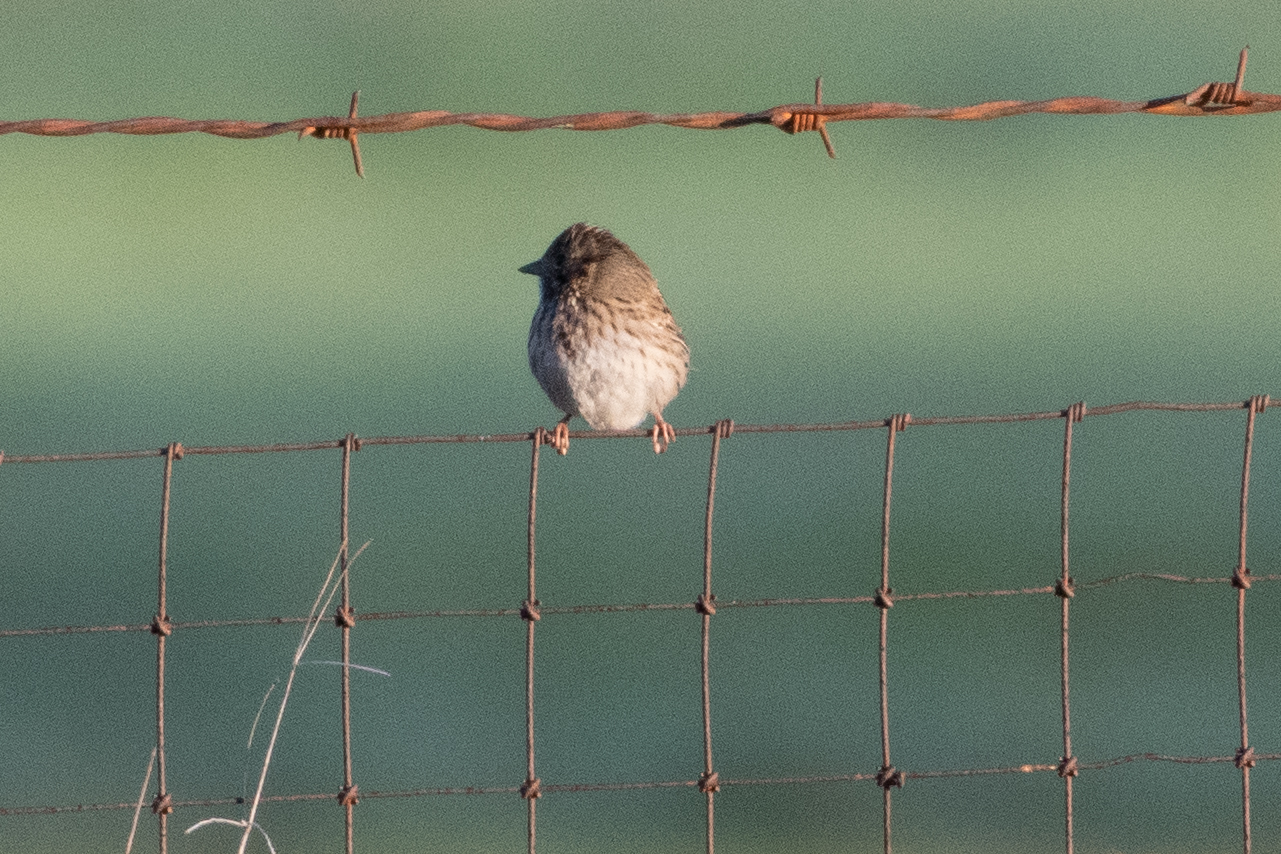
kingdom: Animalia
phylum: Chordata
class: Aves
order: Passeriformes
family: Passerellidae
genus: Melospiza
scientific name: Melospiza lincolnii
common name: Lincoln's sparrow
